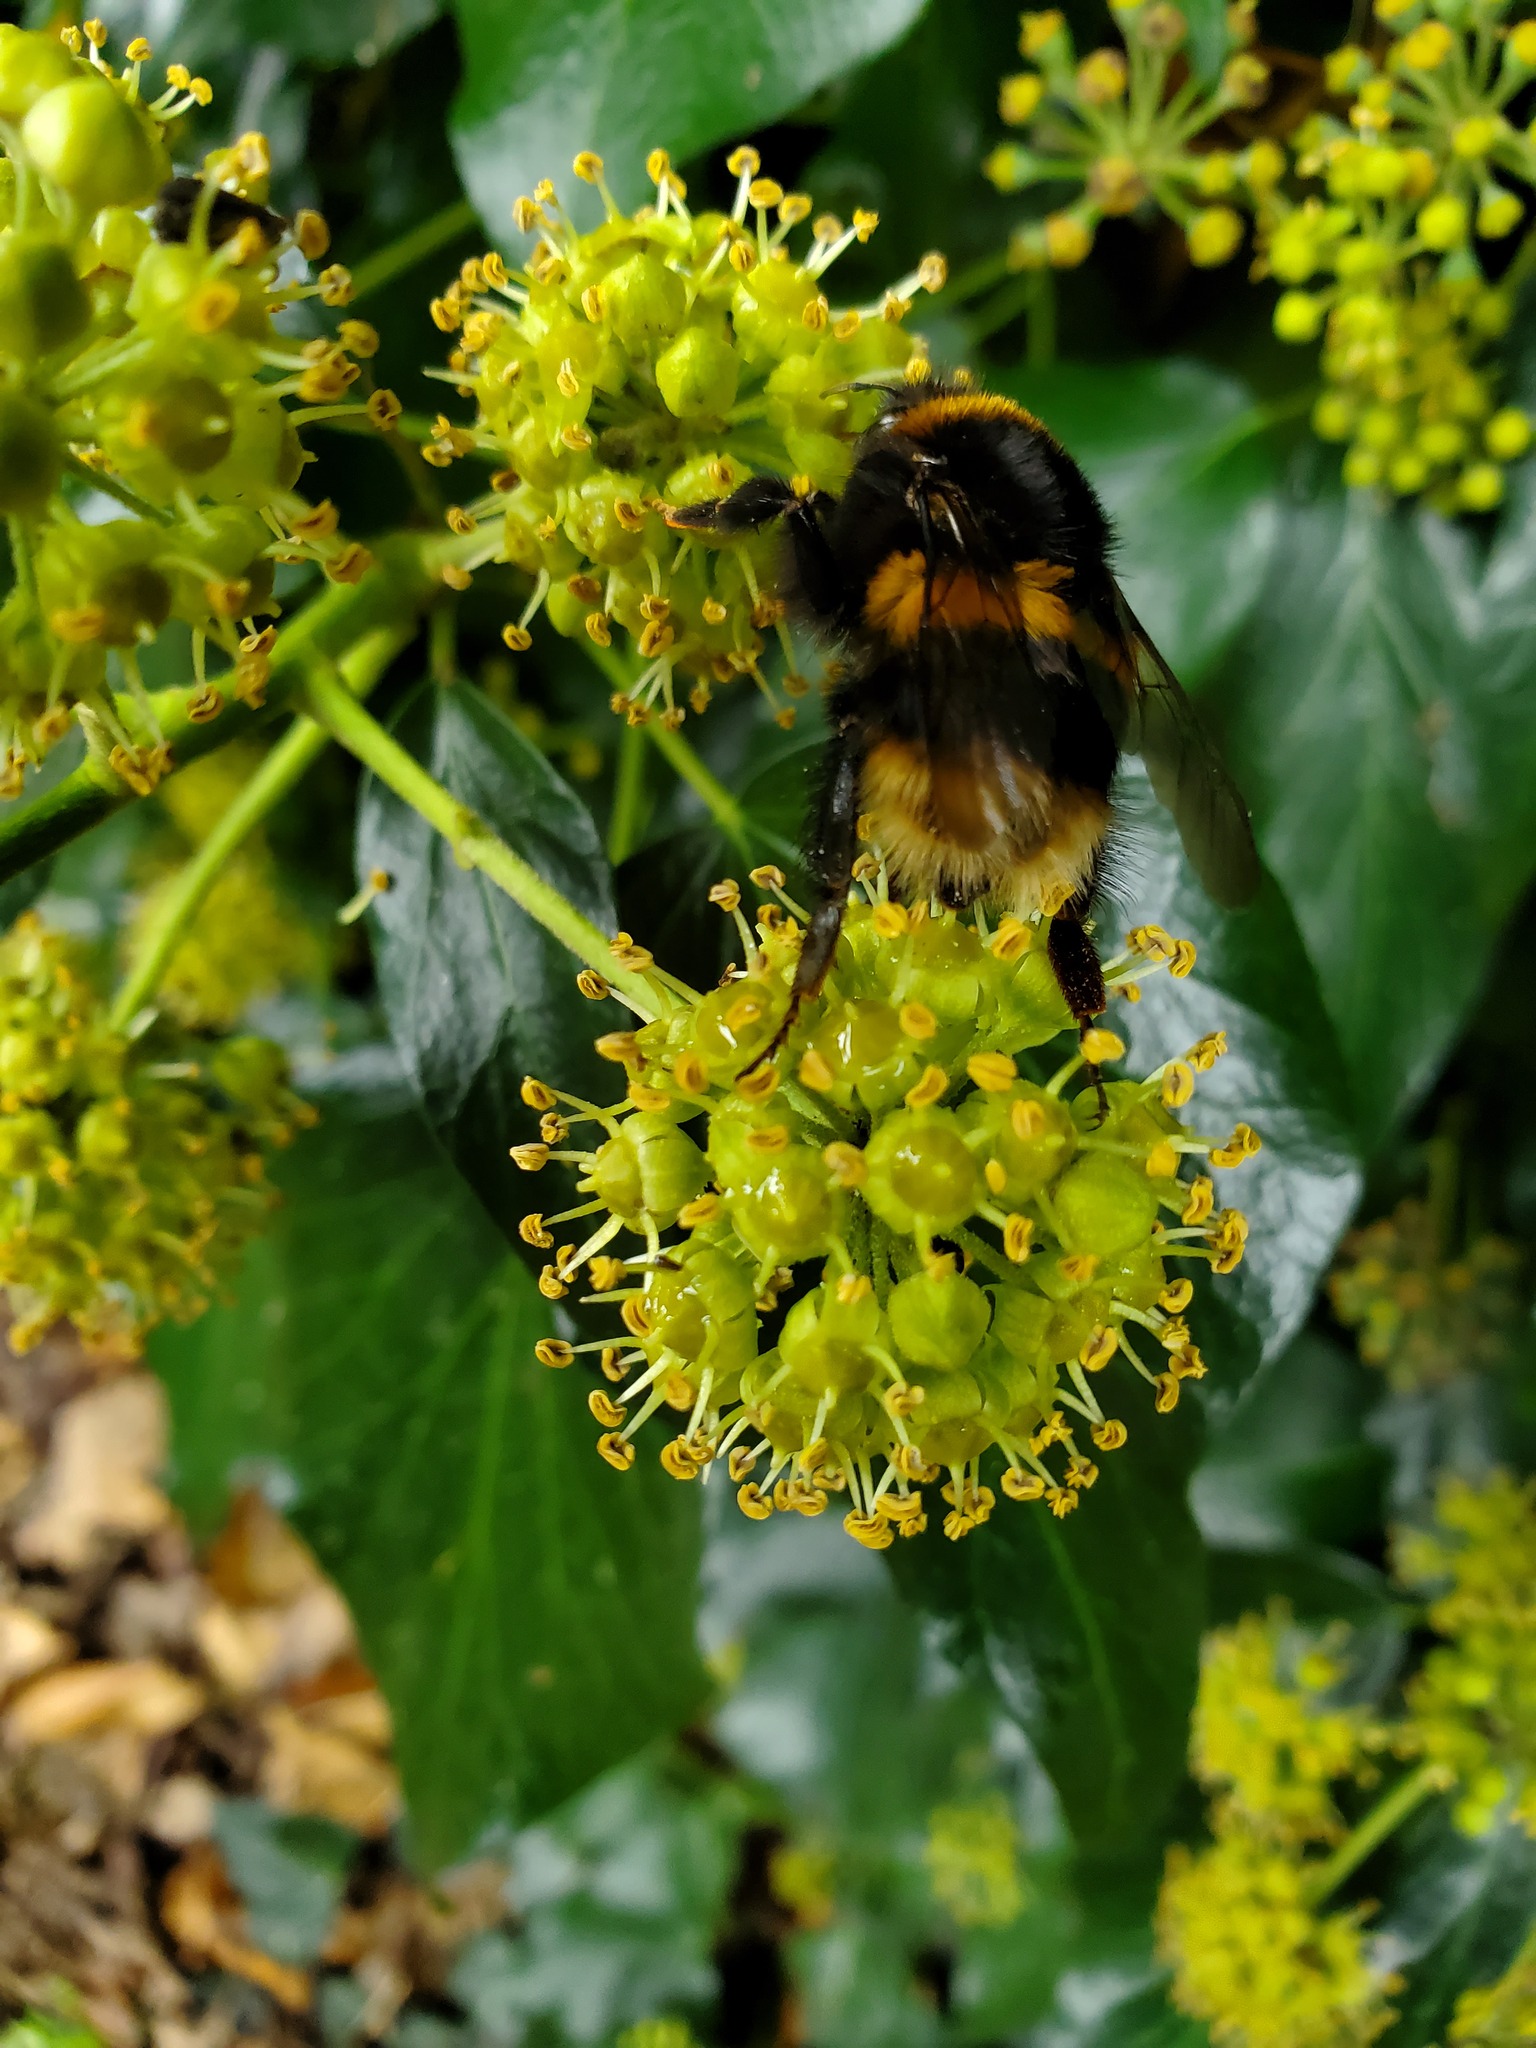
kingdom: Animalia
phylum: Arthropoda
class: Insecta
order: Hymenoptera
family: Apidae
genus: Bombus
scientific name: Bombus terrestris
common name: Buff-tailed bumblebee
